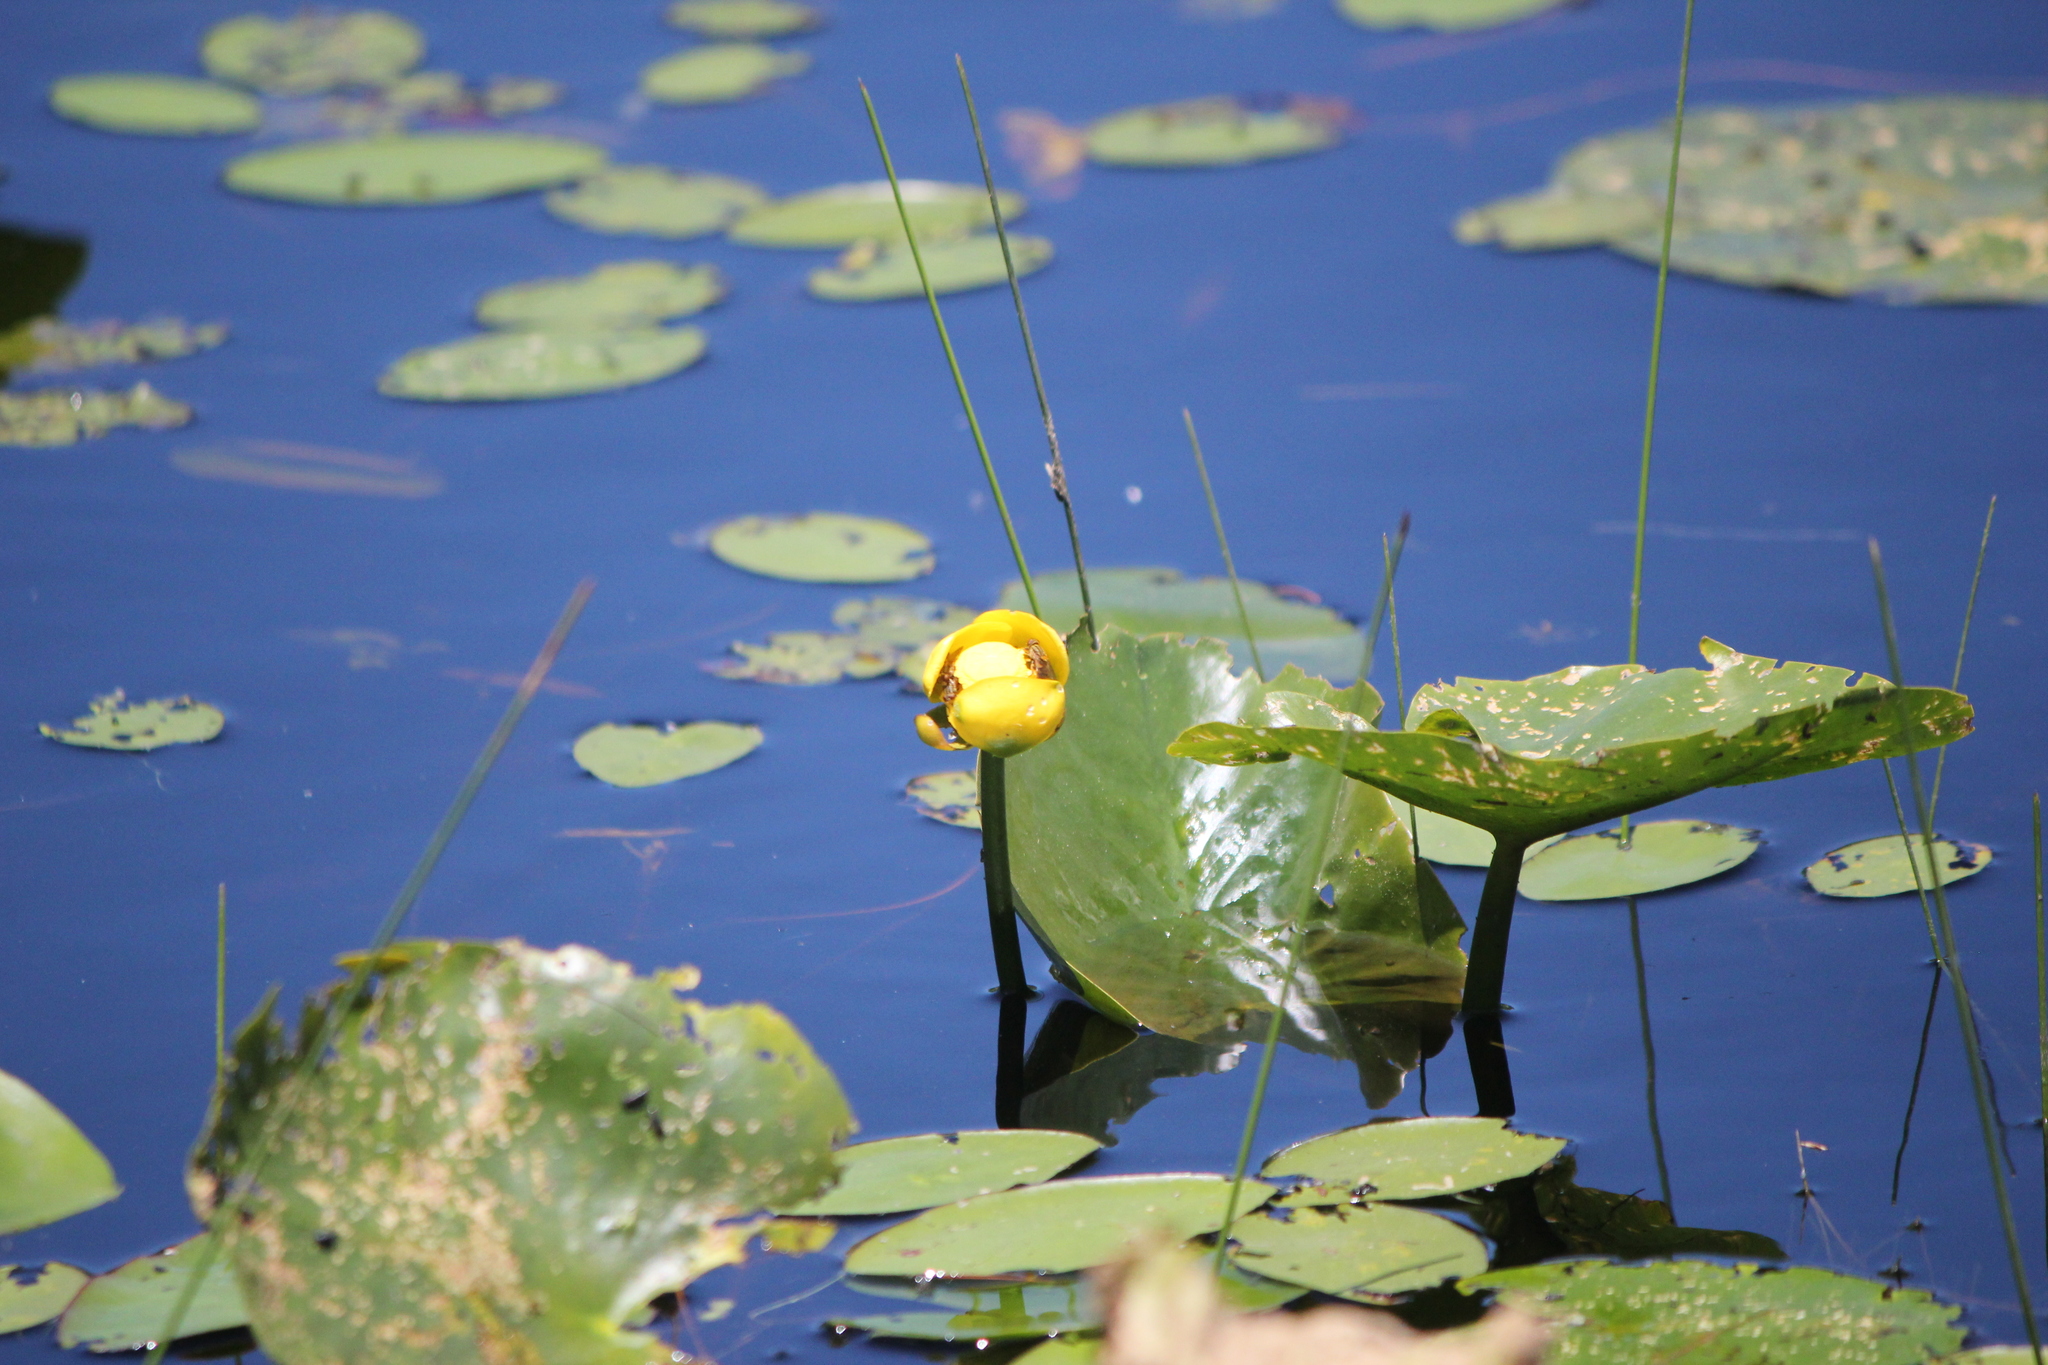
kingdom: Plantae
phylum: Tracheophyta
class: Magnoliopsida
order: Nymphaeales
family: Nymphaeaceae
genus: Nuphar
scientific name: Nuphar advena
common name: Spatter-dock
